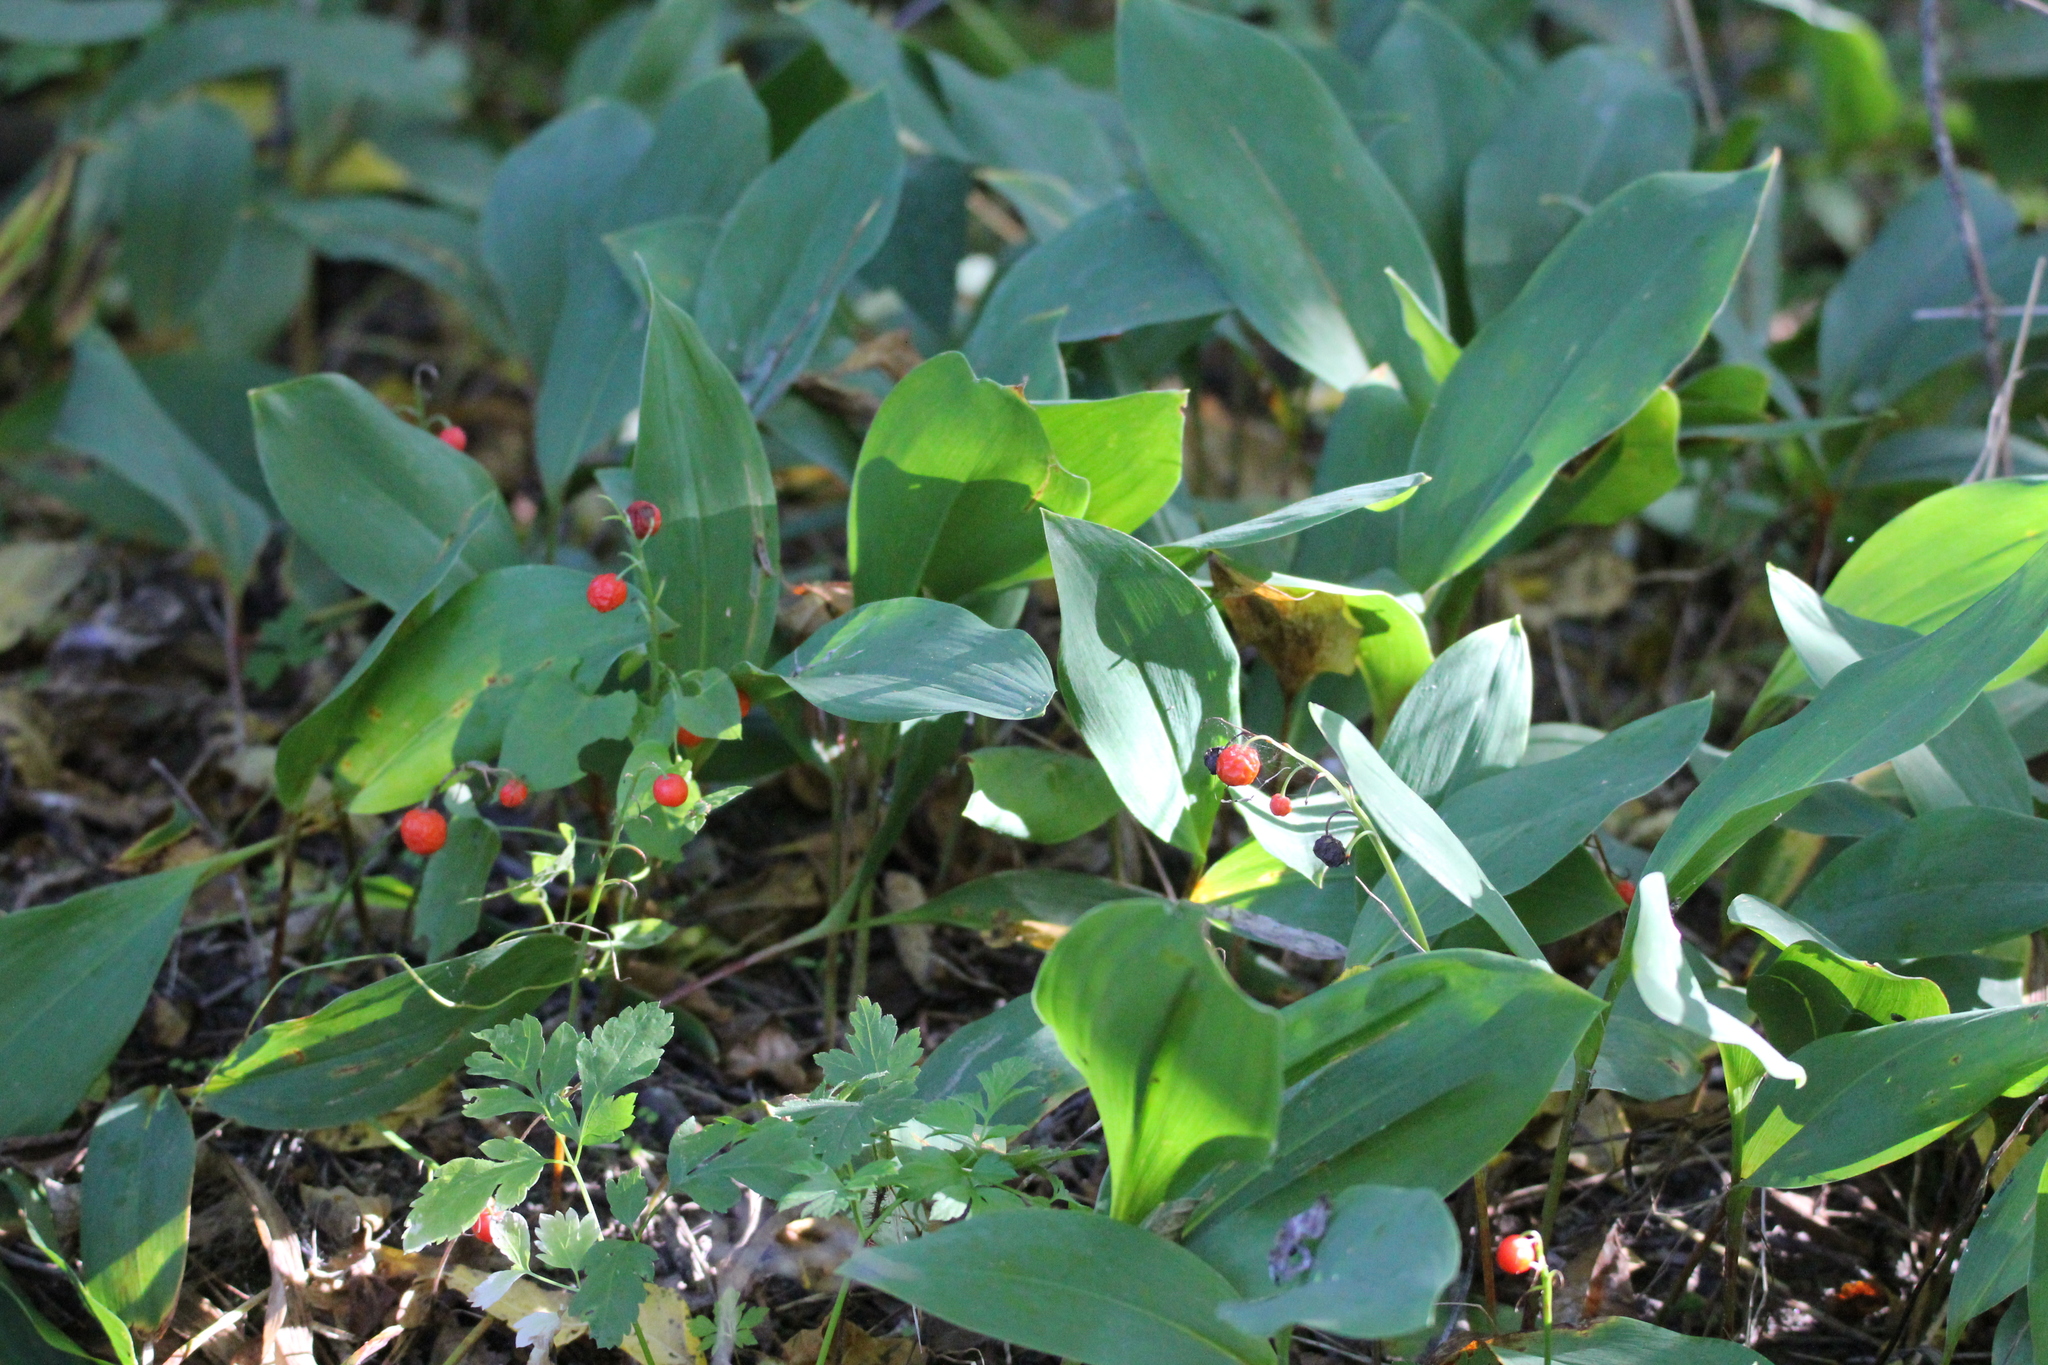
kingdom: Plantae
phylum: Tracheophyta
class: Liliopsida
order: Asparagales
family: Asparagaceae
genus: Convallaria
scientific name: Convallaria majalis
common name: Lily-of-the-valley
